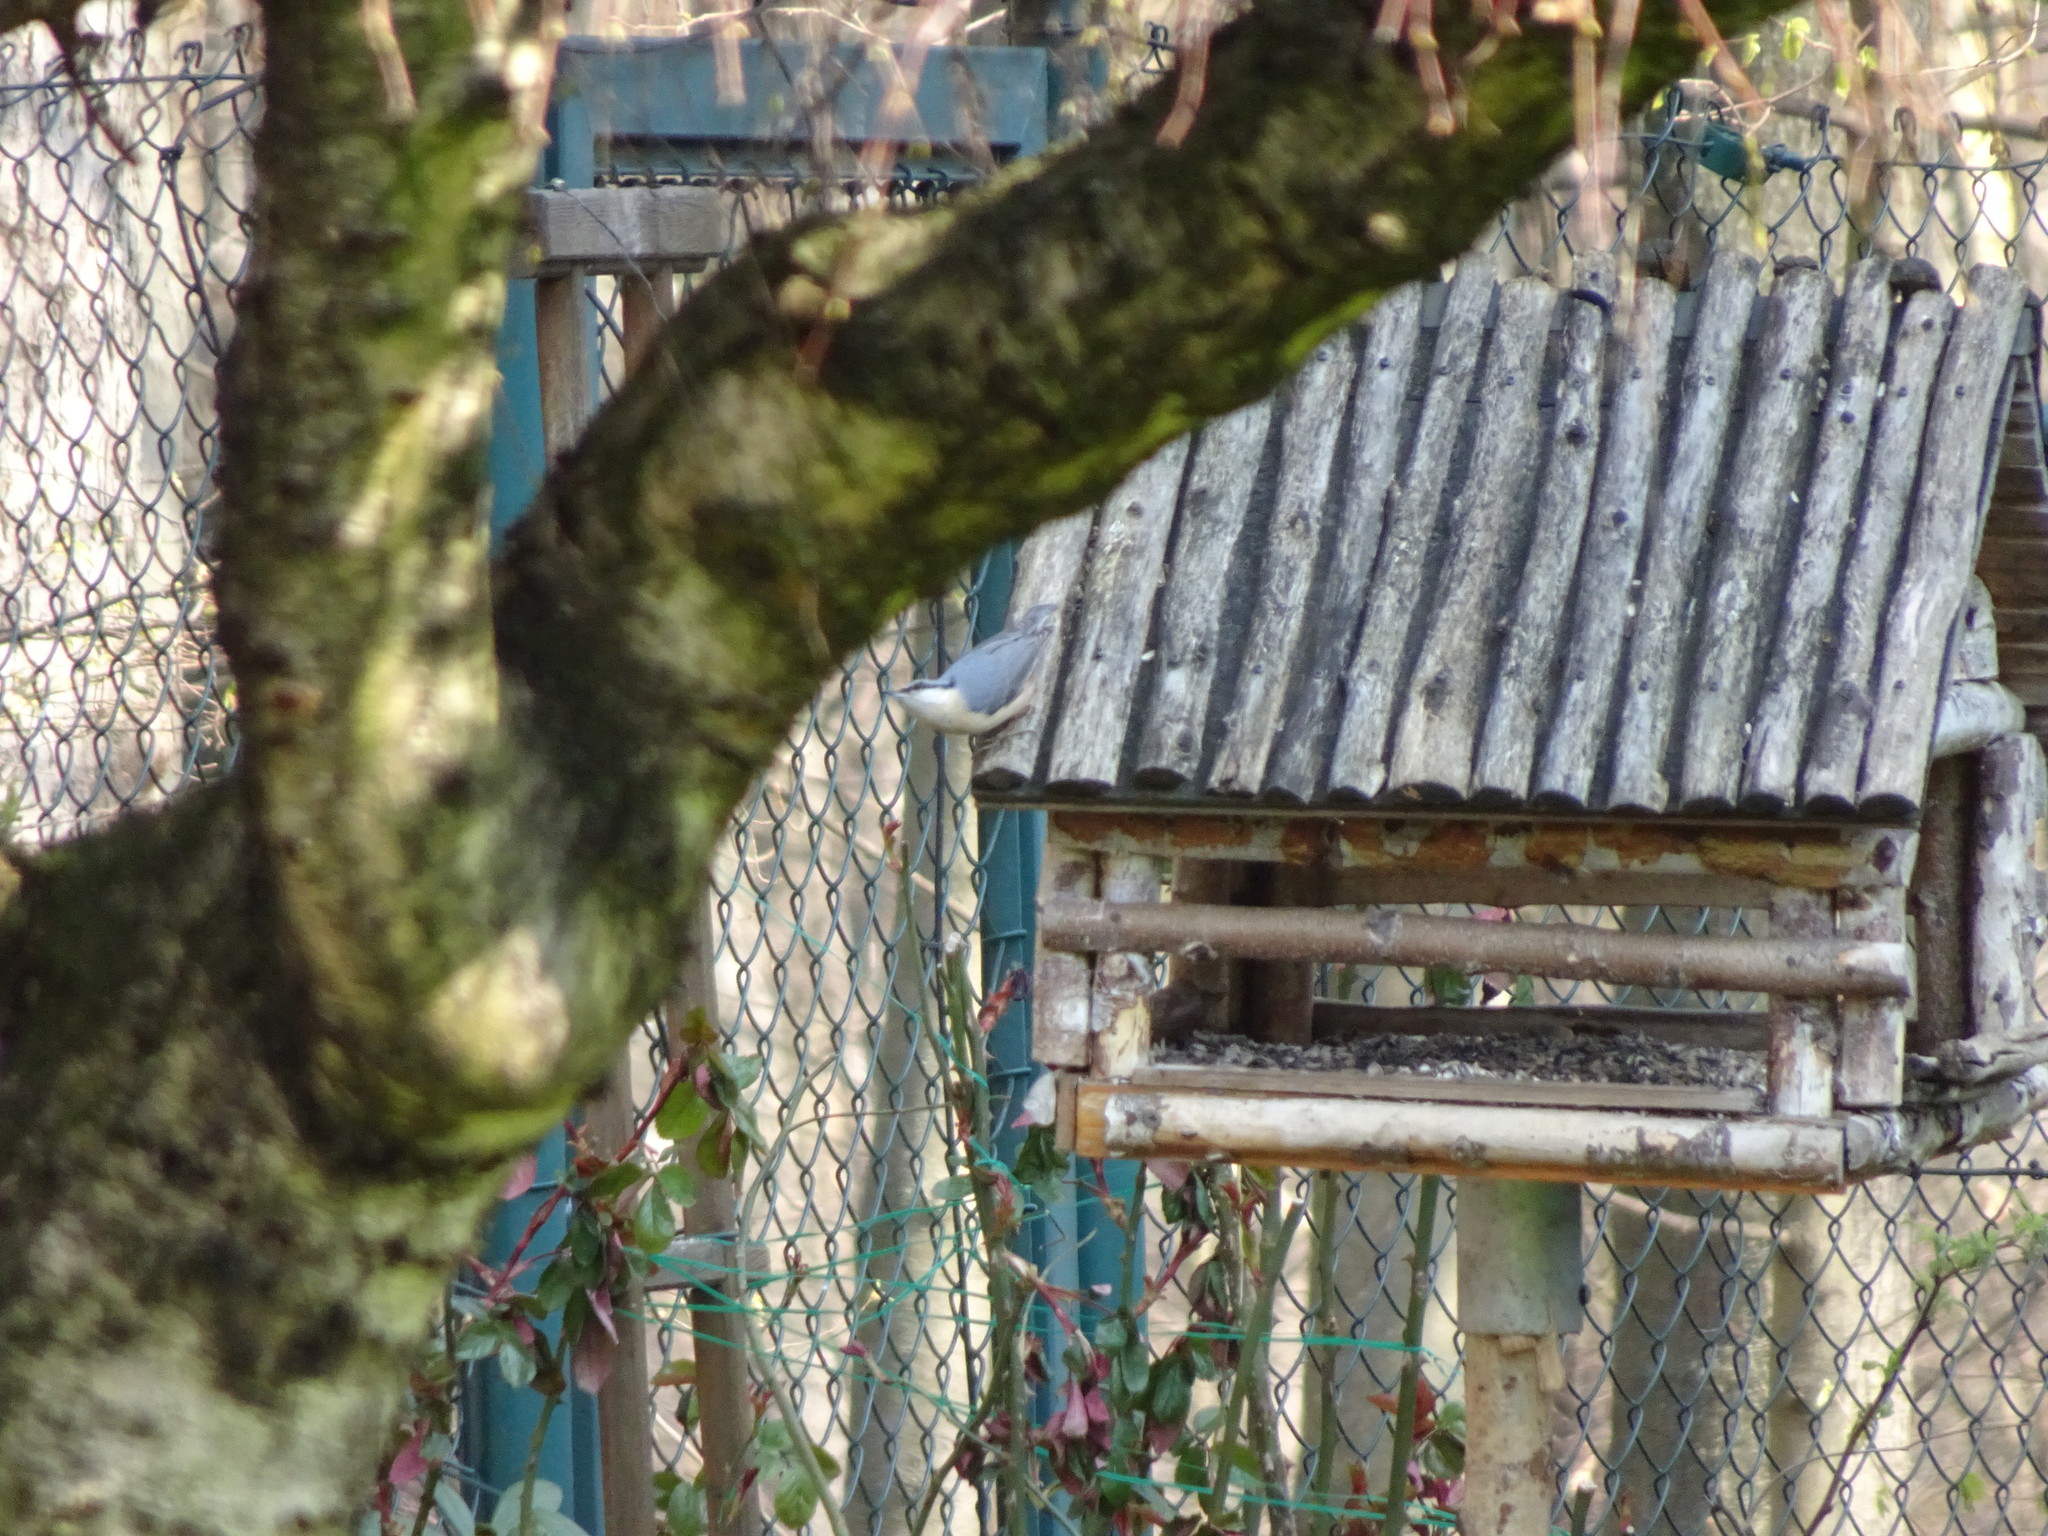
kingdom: Animalia
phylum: Chordata
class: Aves
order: Passeriformes
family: Sittidae
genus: Sitta
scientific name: Sitta europaea
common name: Eurasian nuthatch
